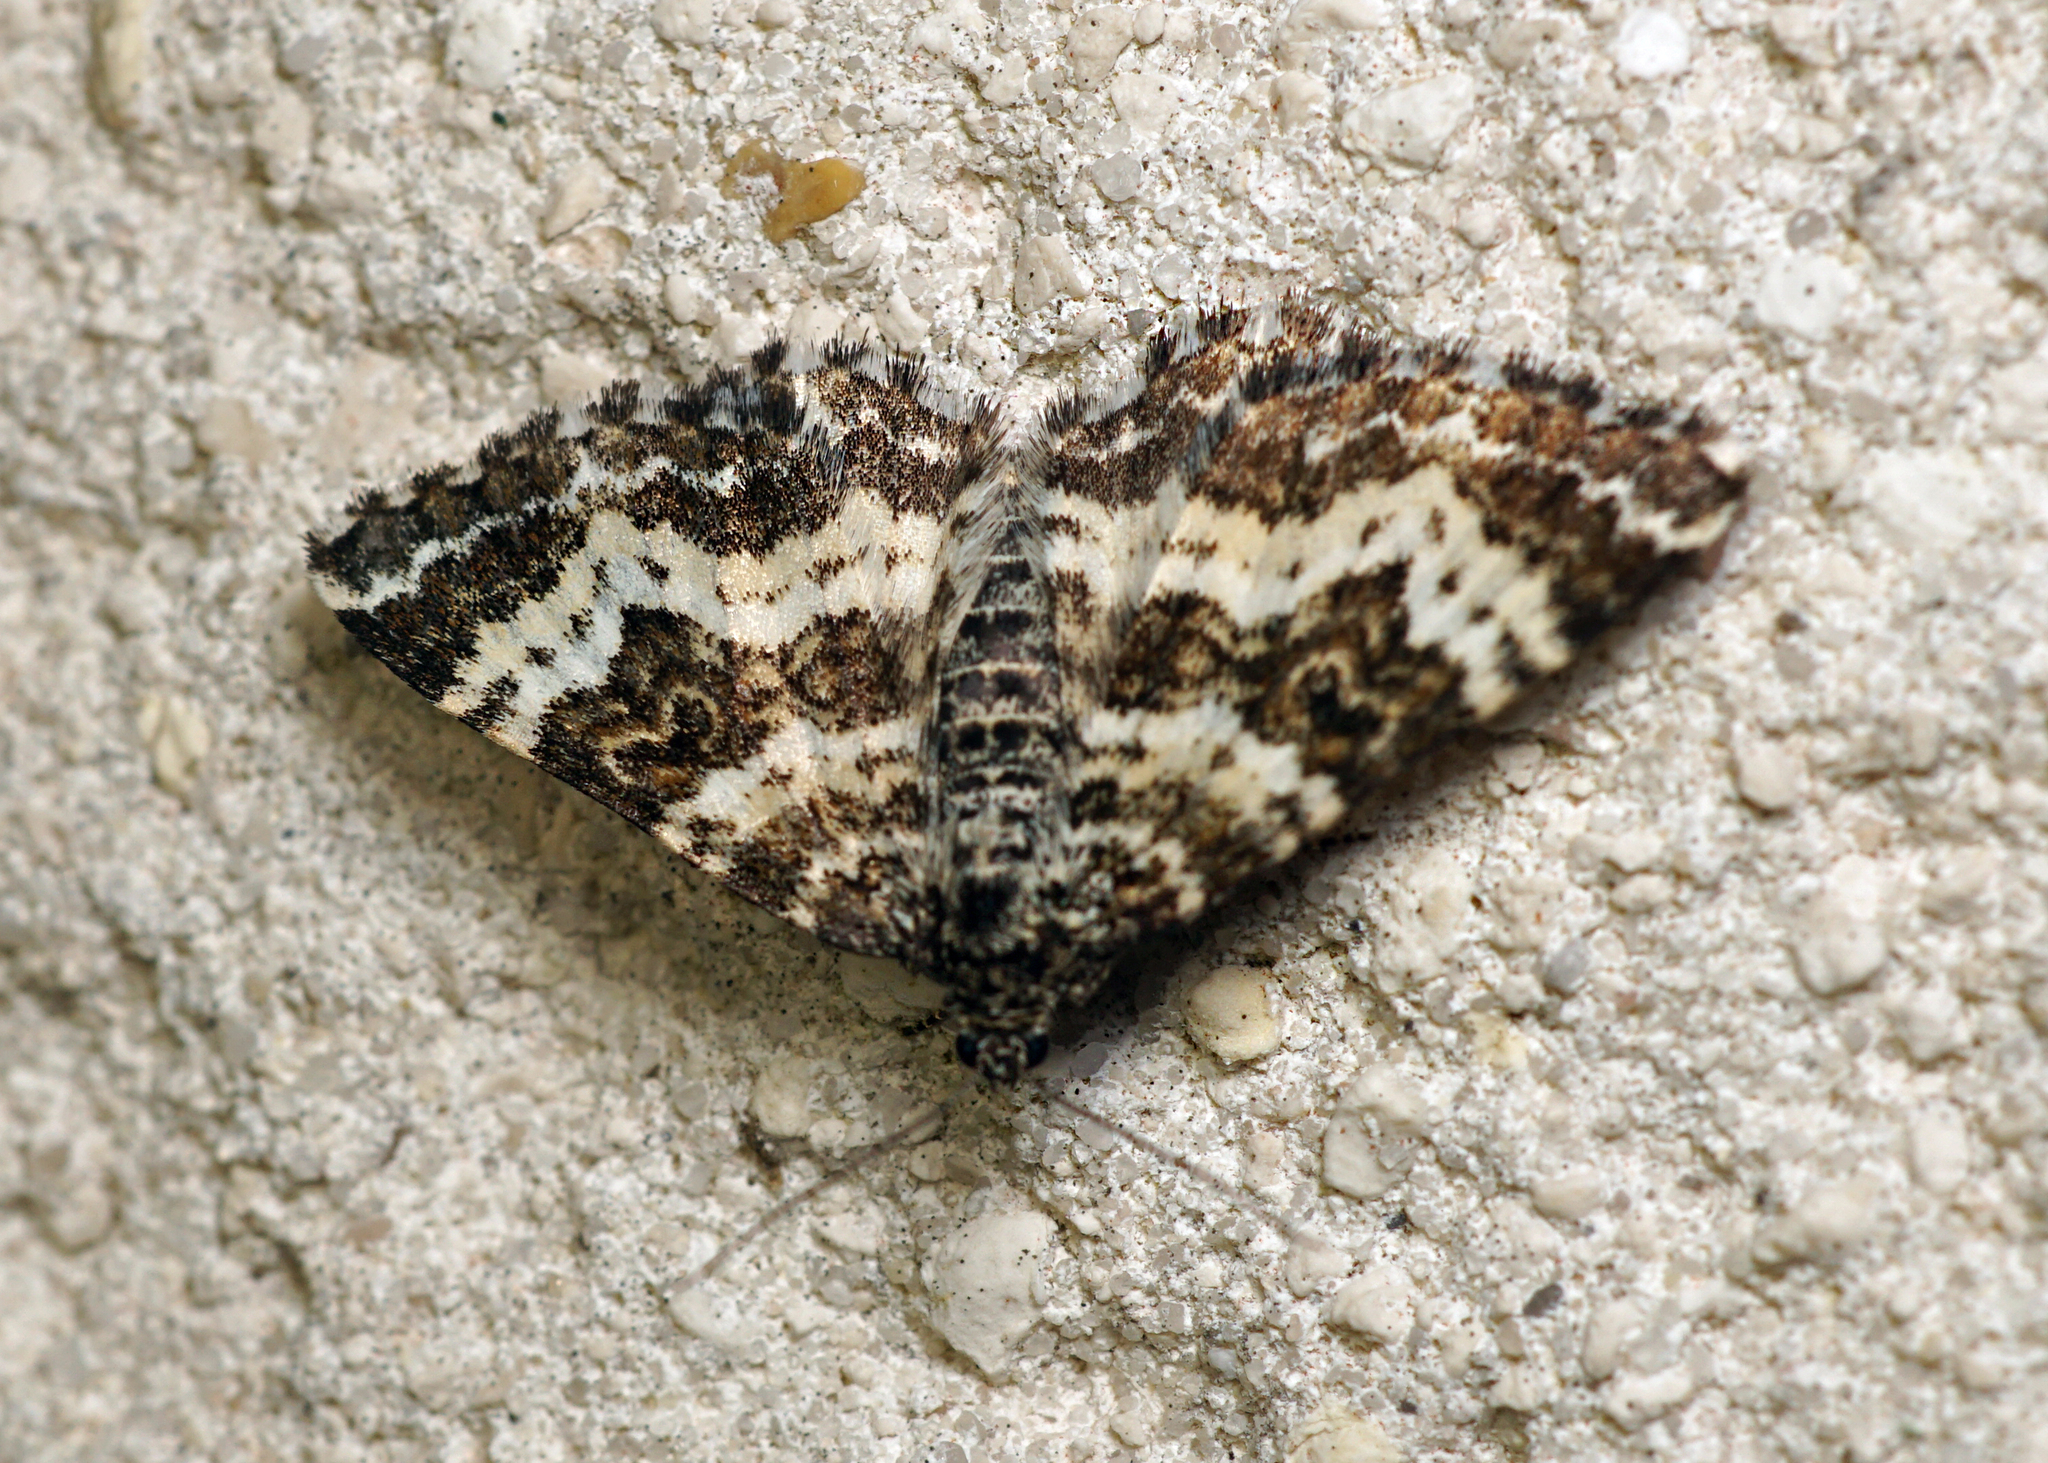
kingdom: Animalia
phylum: Arthropoda
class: Insecta
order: Lepidoptera
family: Geometridae
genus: Epirrhoe
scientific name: Epirrhoe tristata
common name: Small argent & sable
